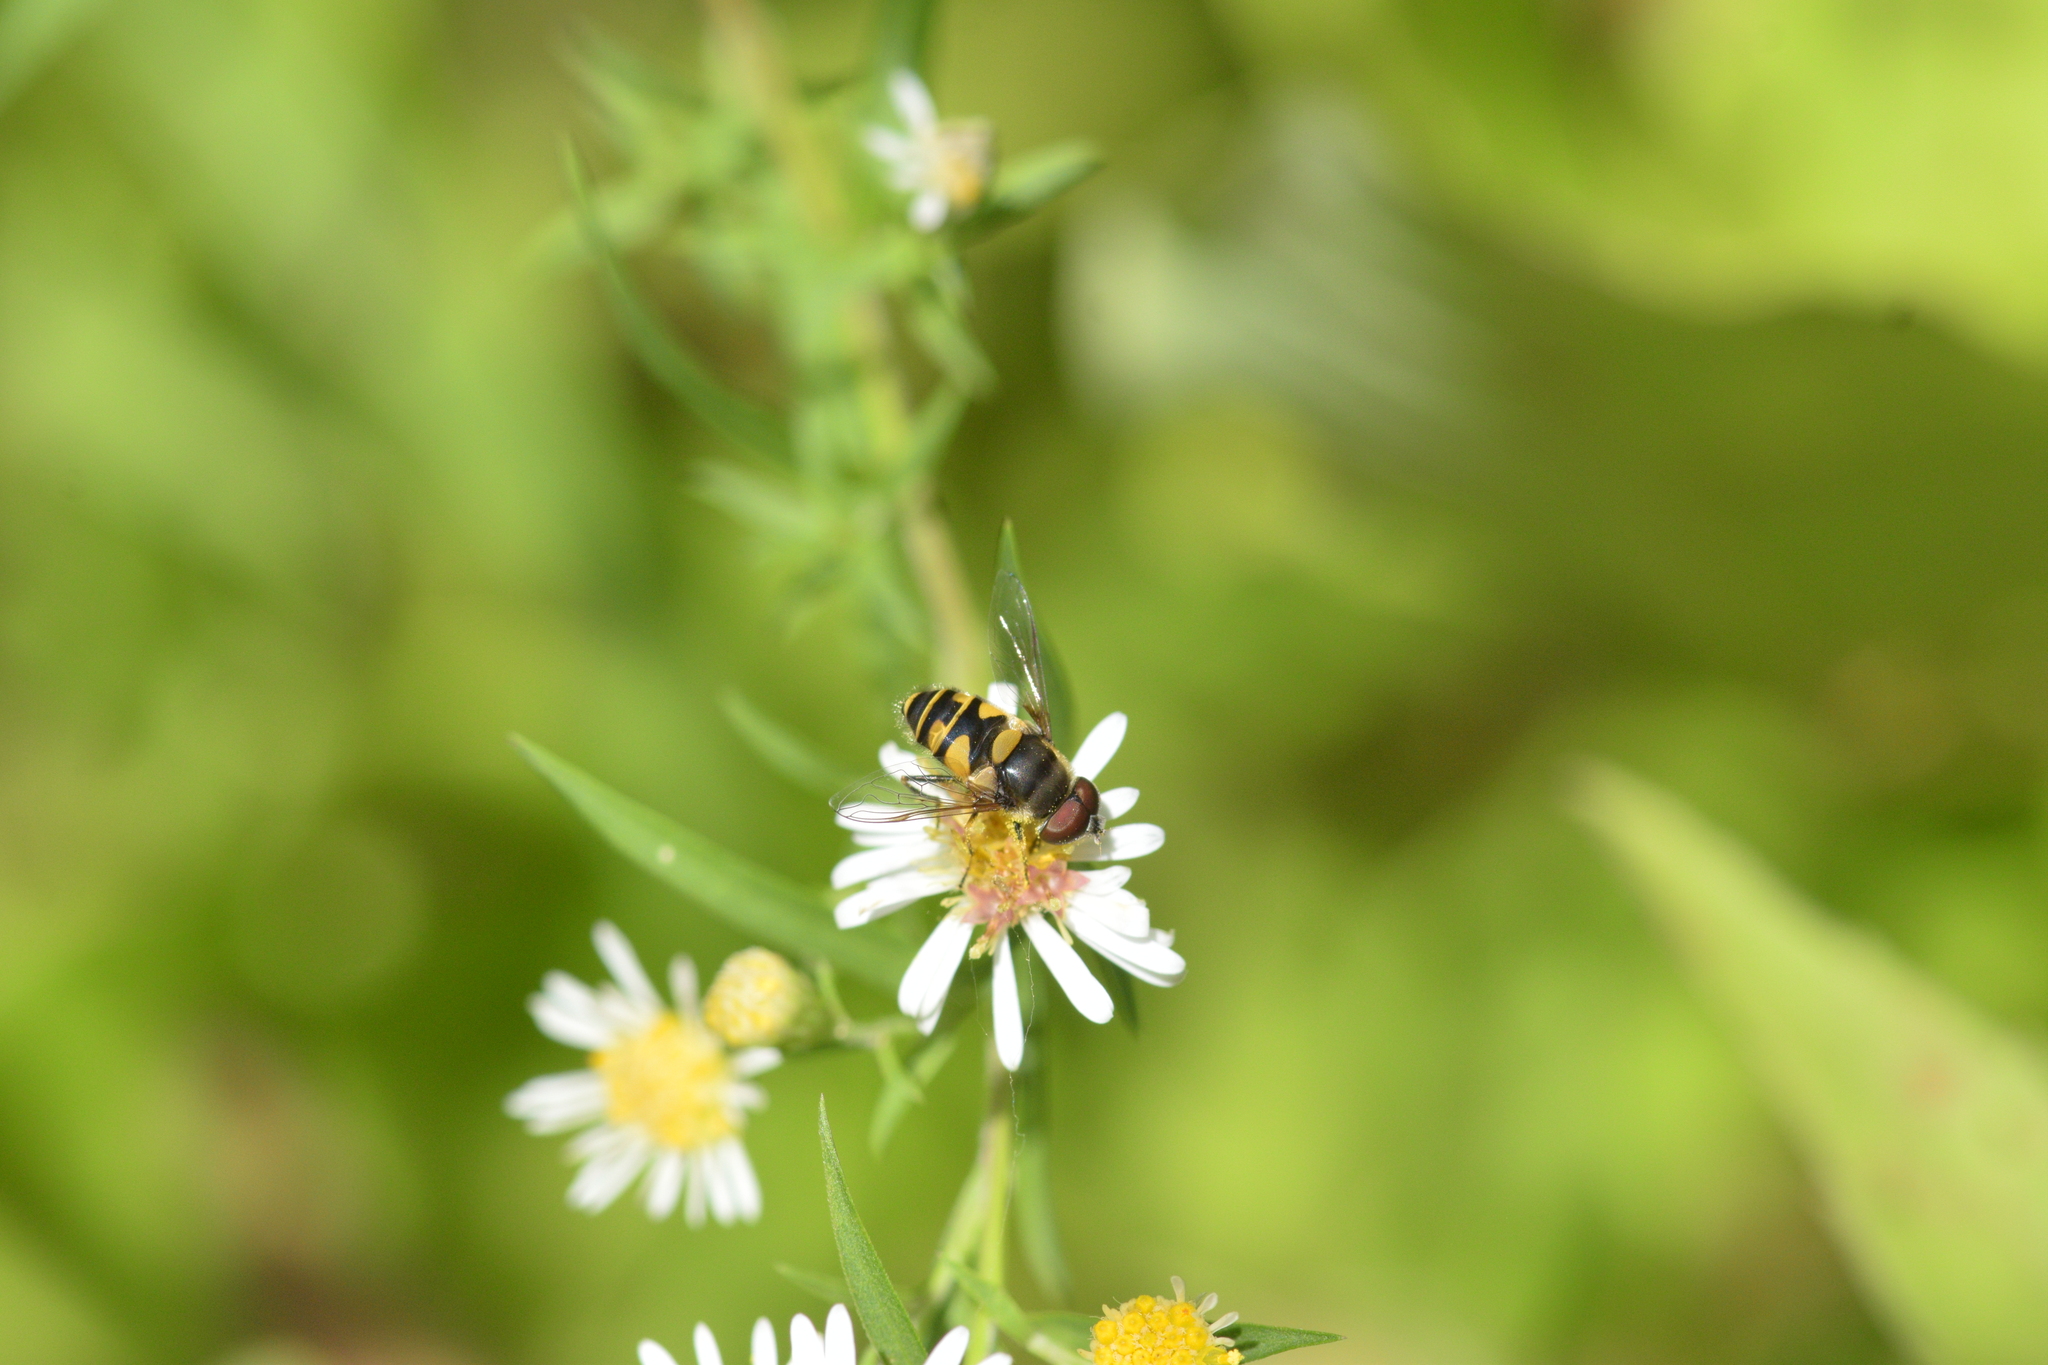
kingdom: Animalia
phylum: Arthropoda
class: Insecta
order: Diptera
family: Syrphidae
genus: Eristalis
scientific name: Eristalis transversa
